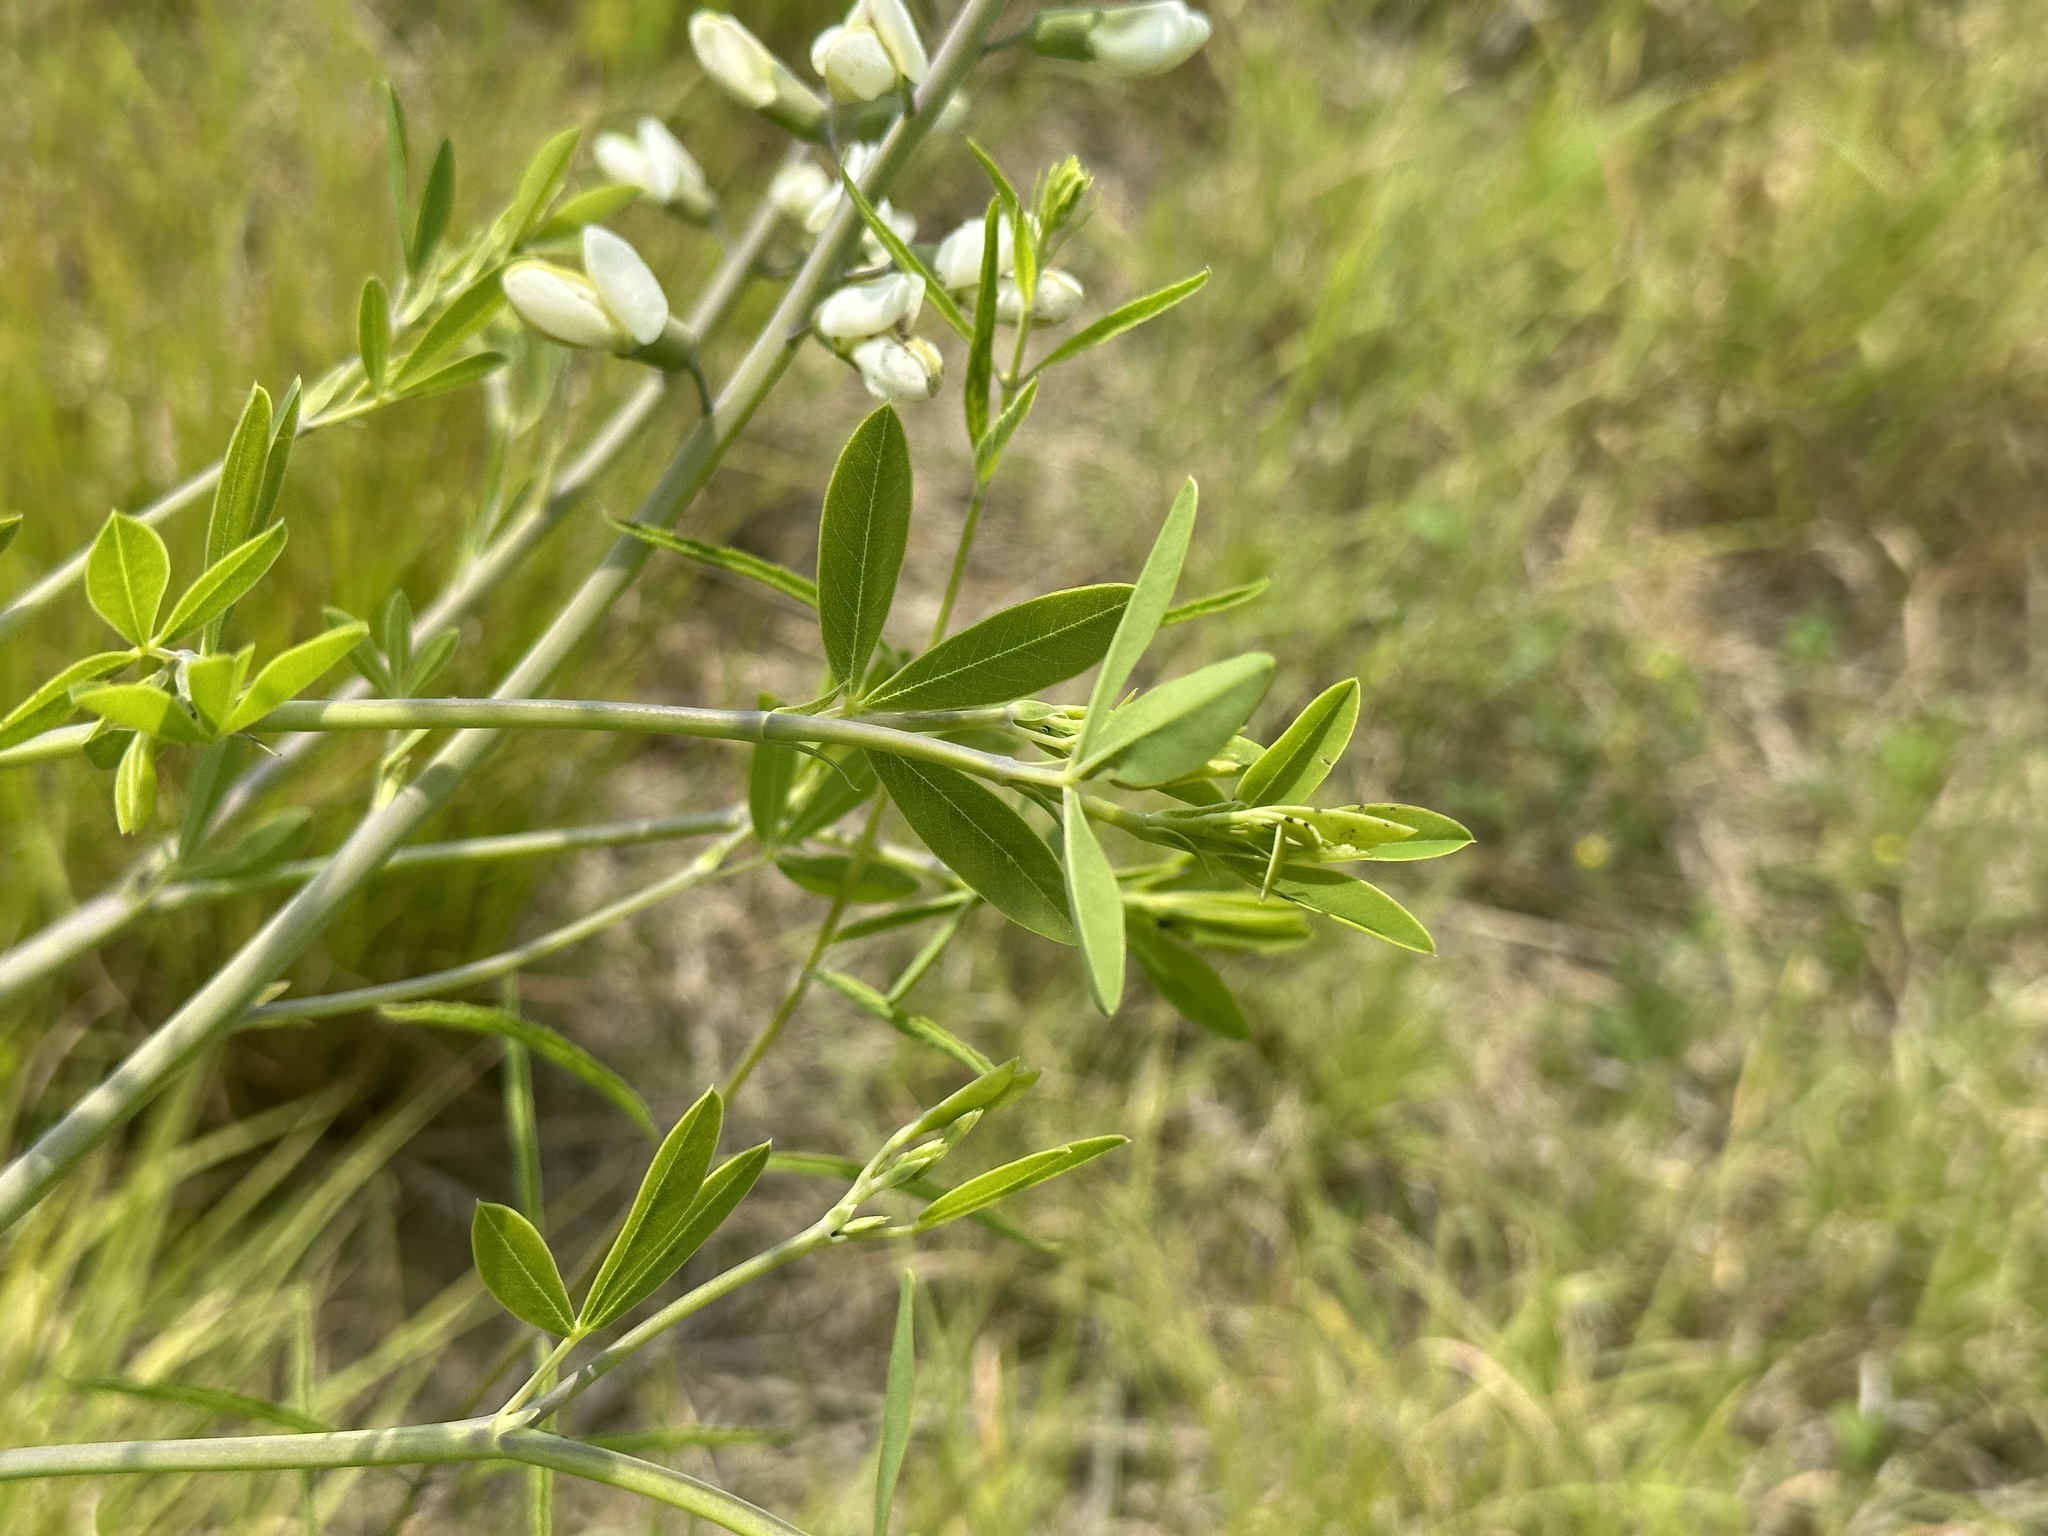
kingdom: Plantae
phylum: Tracheophyta
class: Magnoliopsida
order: Fabales
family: Fabaceae
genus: Baptisia
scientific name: Baptisia alba
